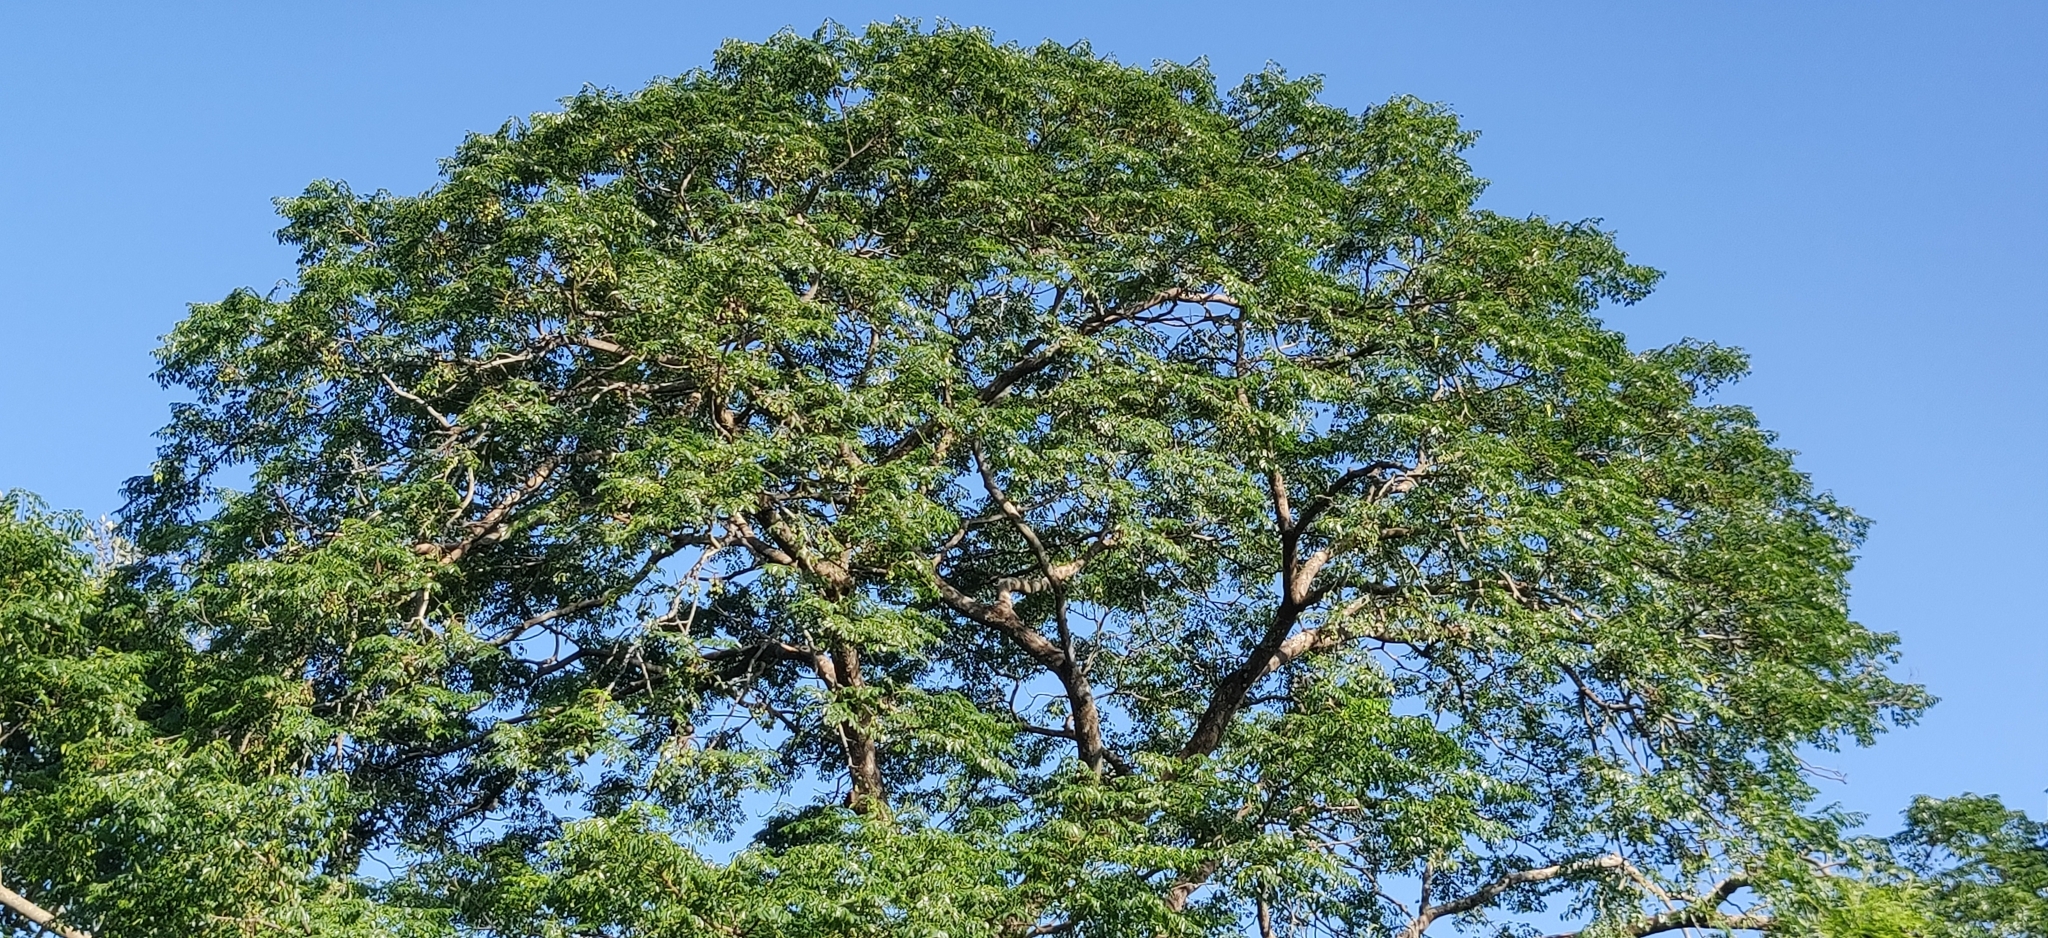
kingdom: Plantae
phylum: Tracheophyta
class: Magnoliopsida
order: Sapindales
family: Meliaceae
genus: Melia
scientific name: Melia dubia
